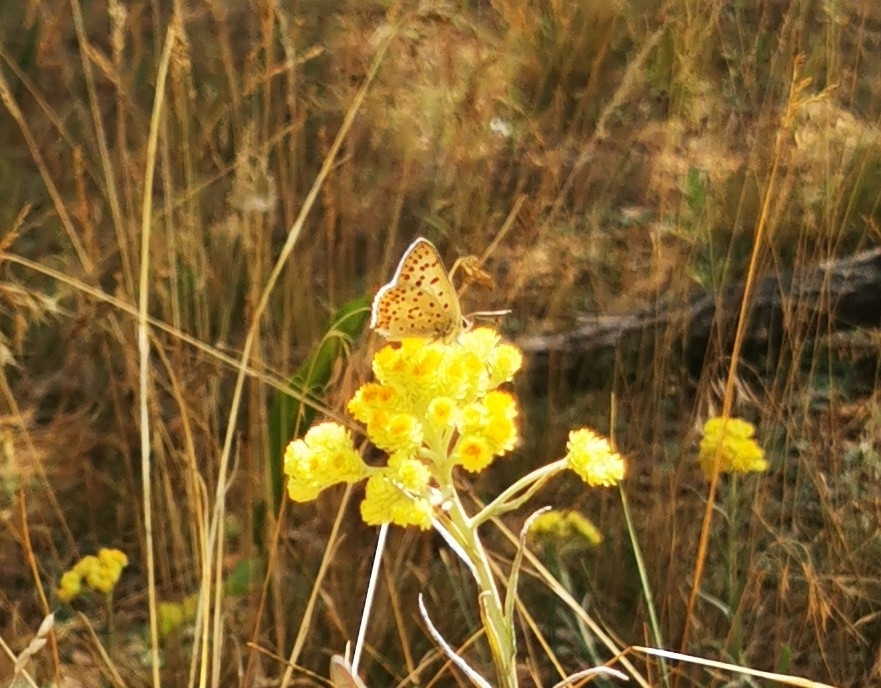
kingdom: Animalia
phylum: Arthropoda
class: Insecta
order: Lepidoptera
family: Lycaenidae
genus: Loweia
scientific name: Loweia tityrus
